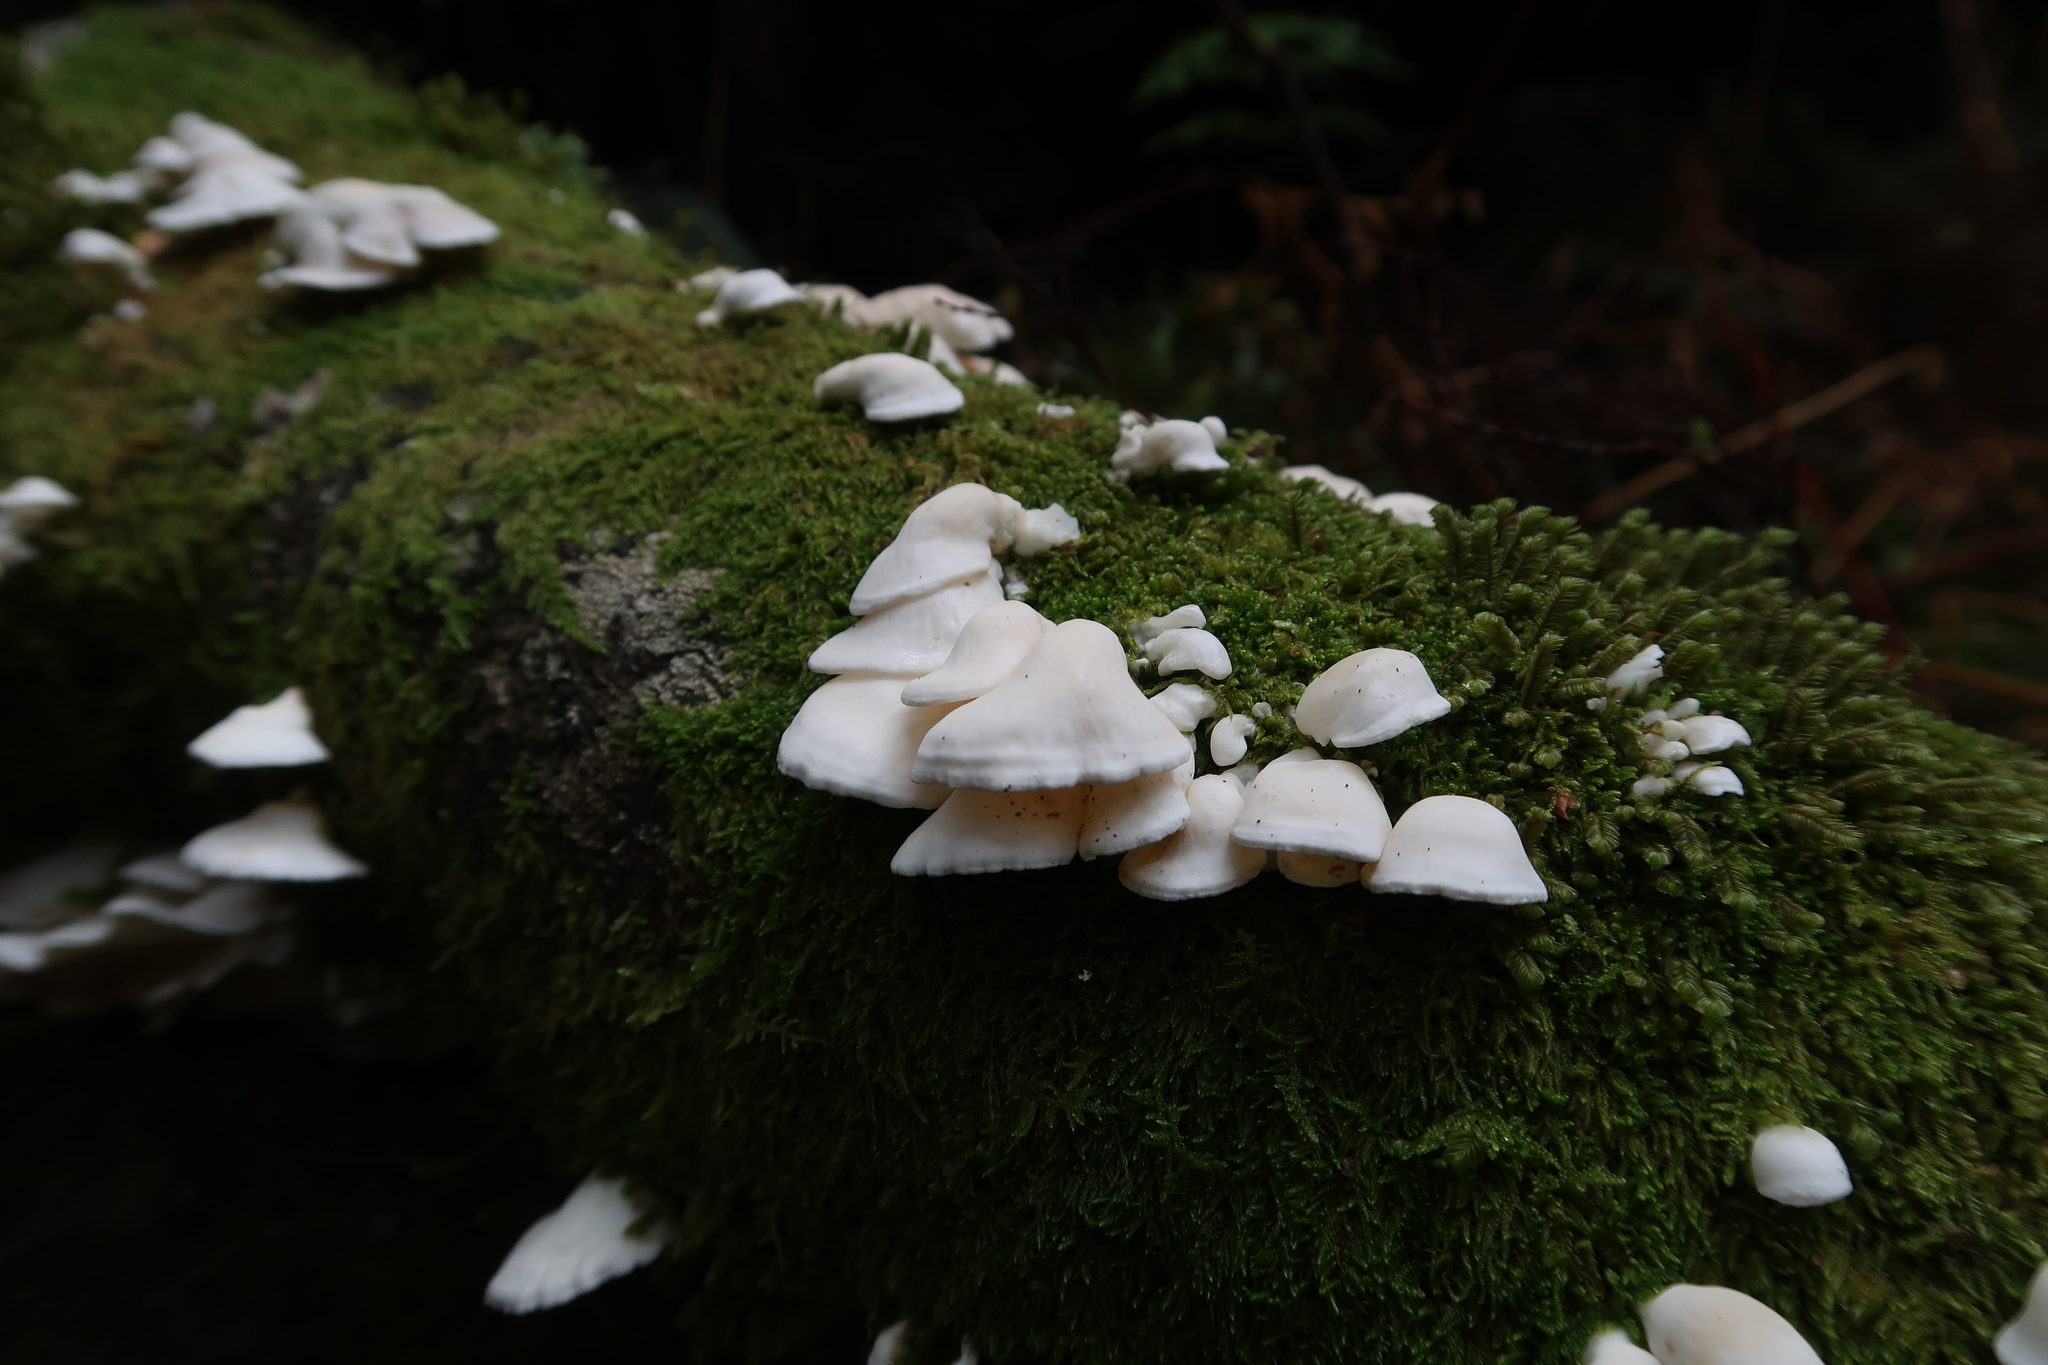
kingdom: Fungi
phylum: Basidiomycota
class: Agaricomycetes
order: Polyporales
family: Irpicaceae
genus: Gloeoporus
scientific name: Gloeoporus phlebophorus
